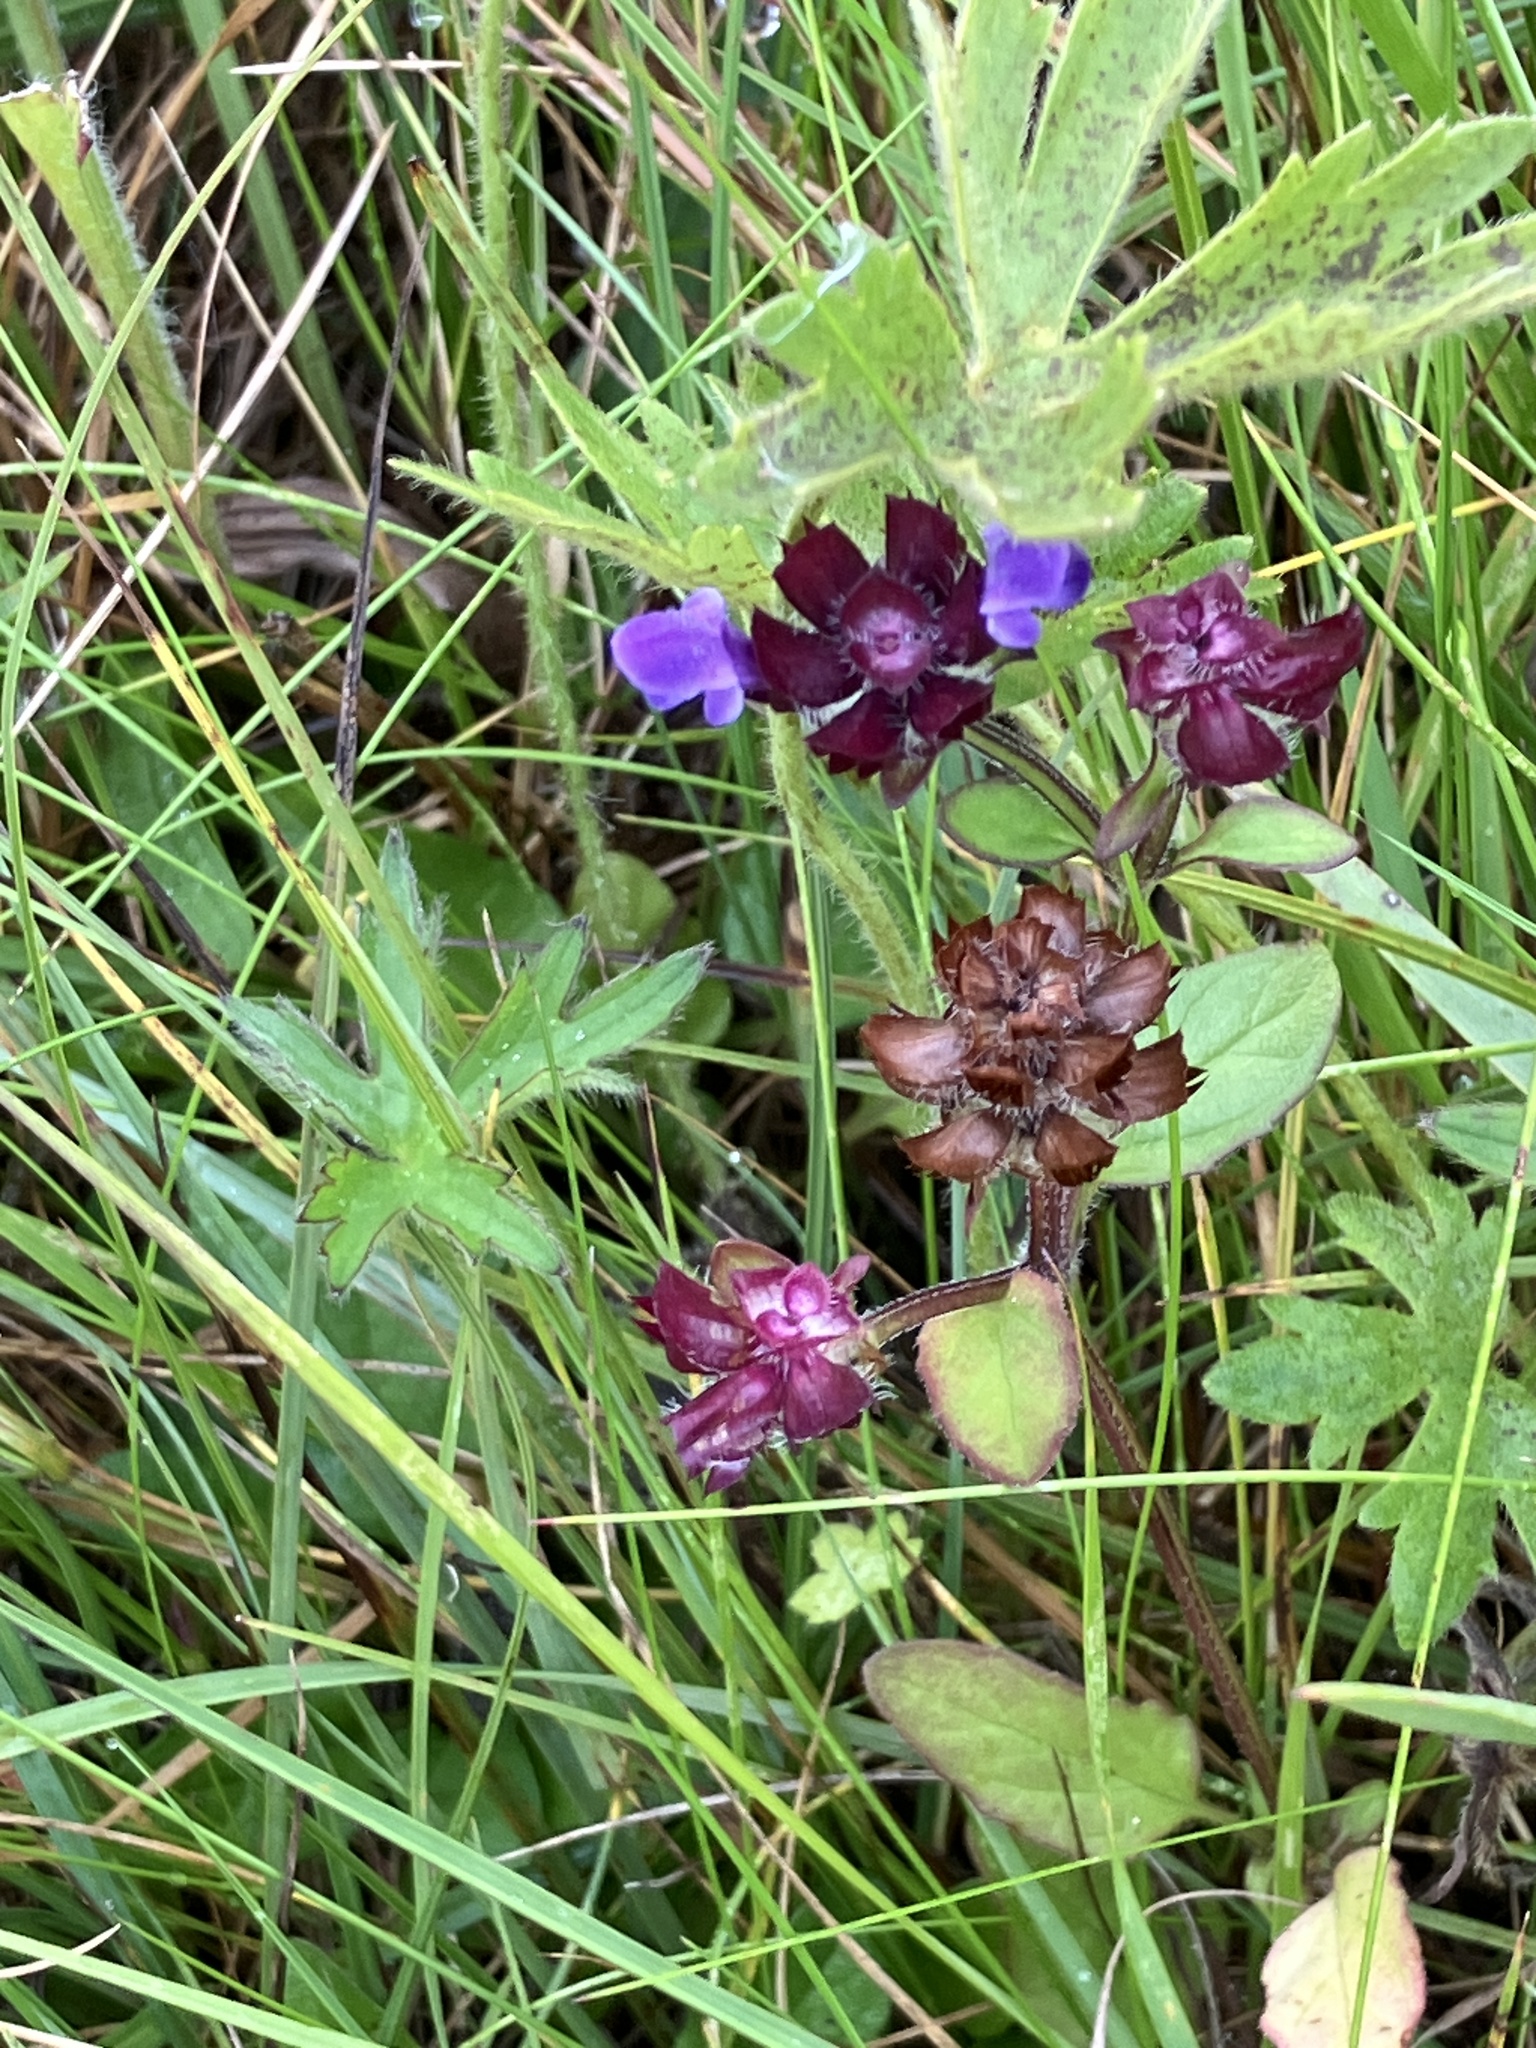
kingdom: Plantae
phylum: Tracheophyta
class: Magnoliopsida
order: Lamiales
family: Lamiaceae
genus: Prunella
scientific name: Prunella vulgaris
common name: Heal-all
